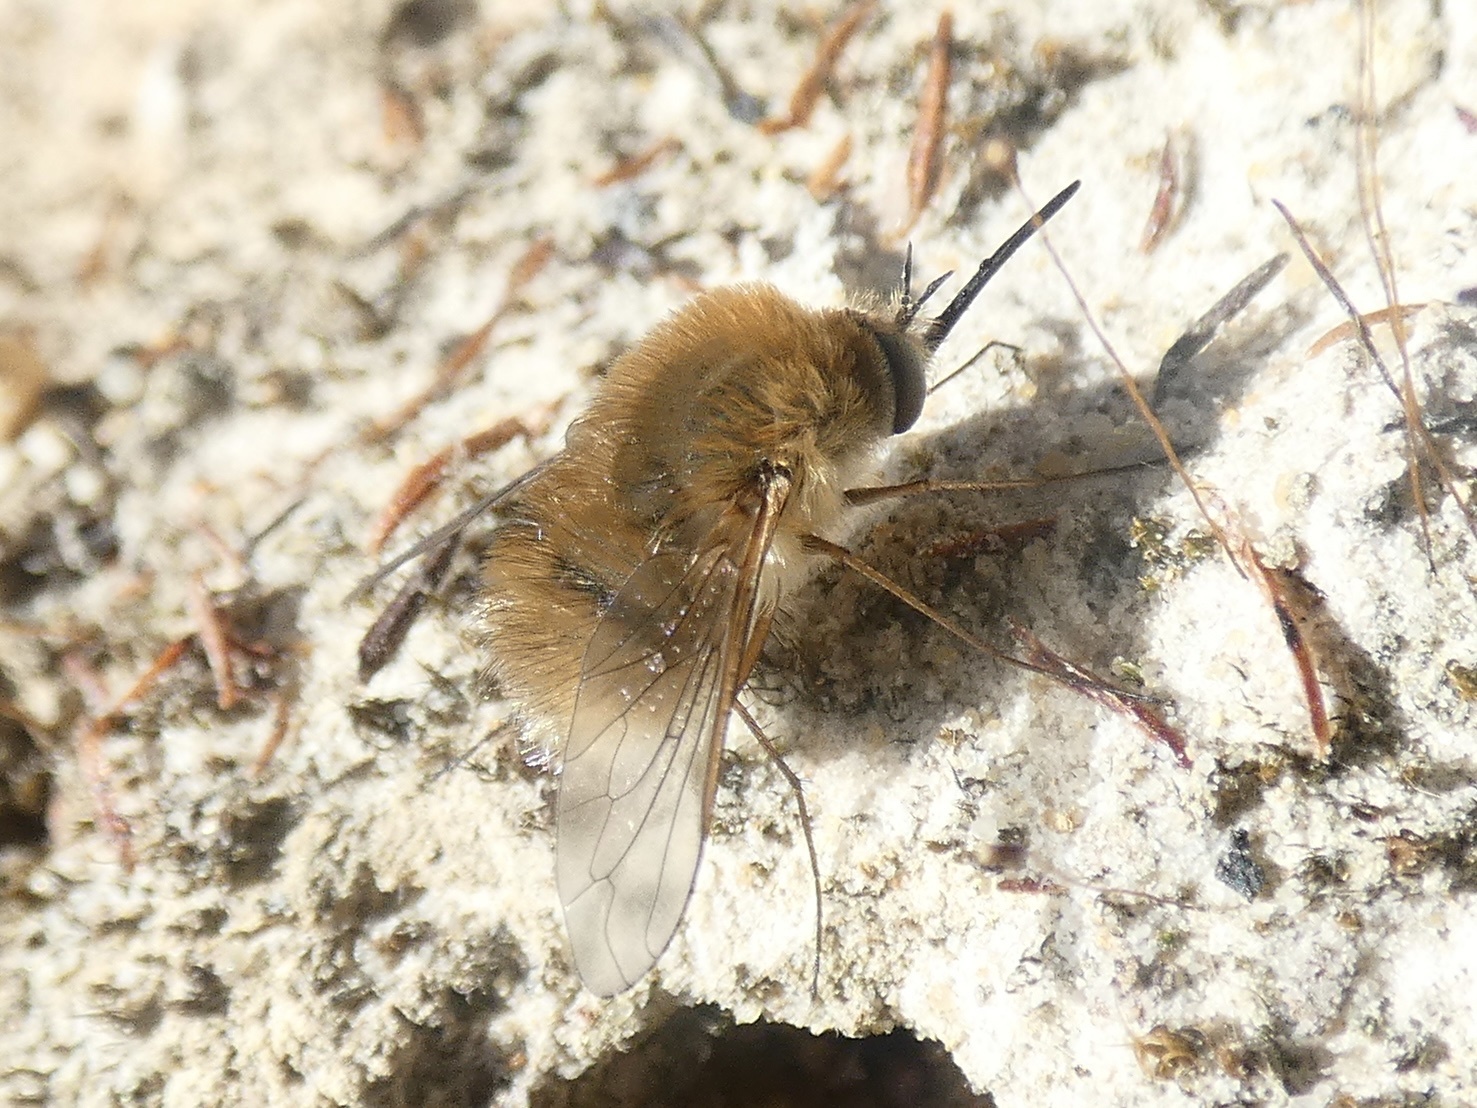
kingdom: Animalia
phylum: Arthropoda
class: Insecta
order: Diptera
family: Bombyliidae
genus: Bombylius
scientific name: Bombylius minor
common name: Heath bee-fly
